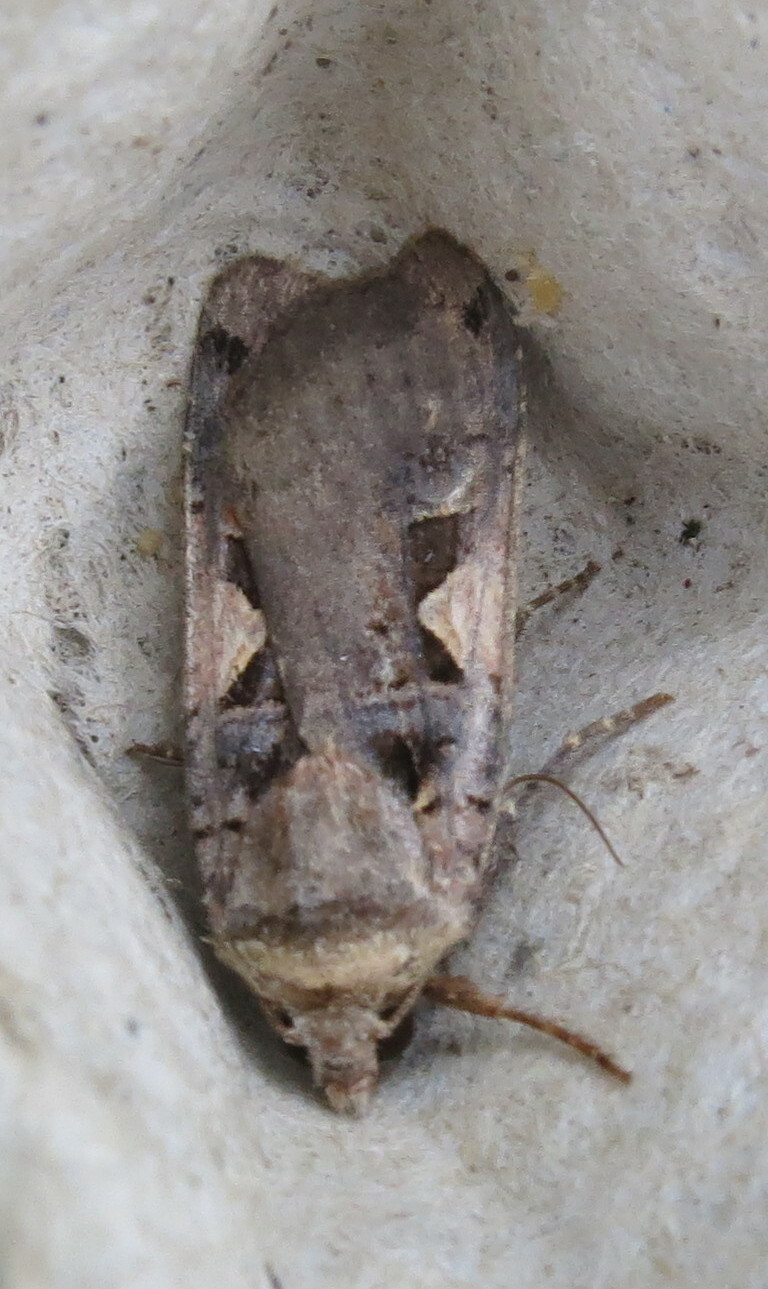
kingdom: Animalia
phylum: Arthropoda
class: Insecta
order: Lepidoptera
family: Noctuidae
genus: Xestia
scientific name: Xestia c-nigrum
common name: Setaceous hebrew character
